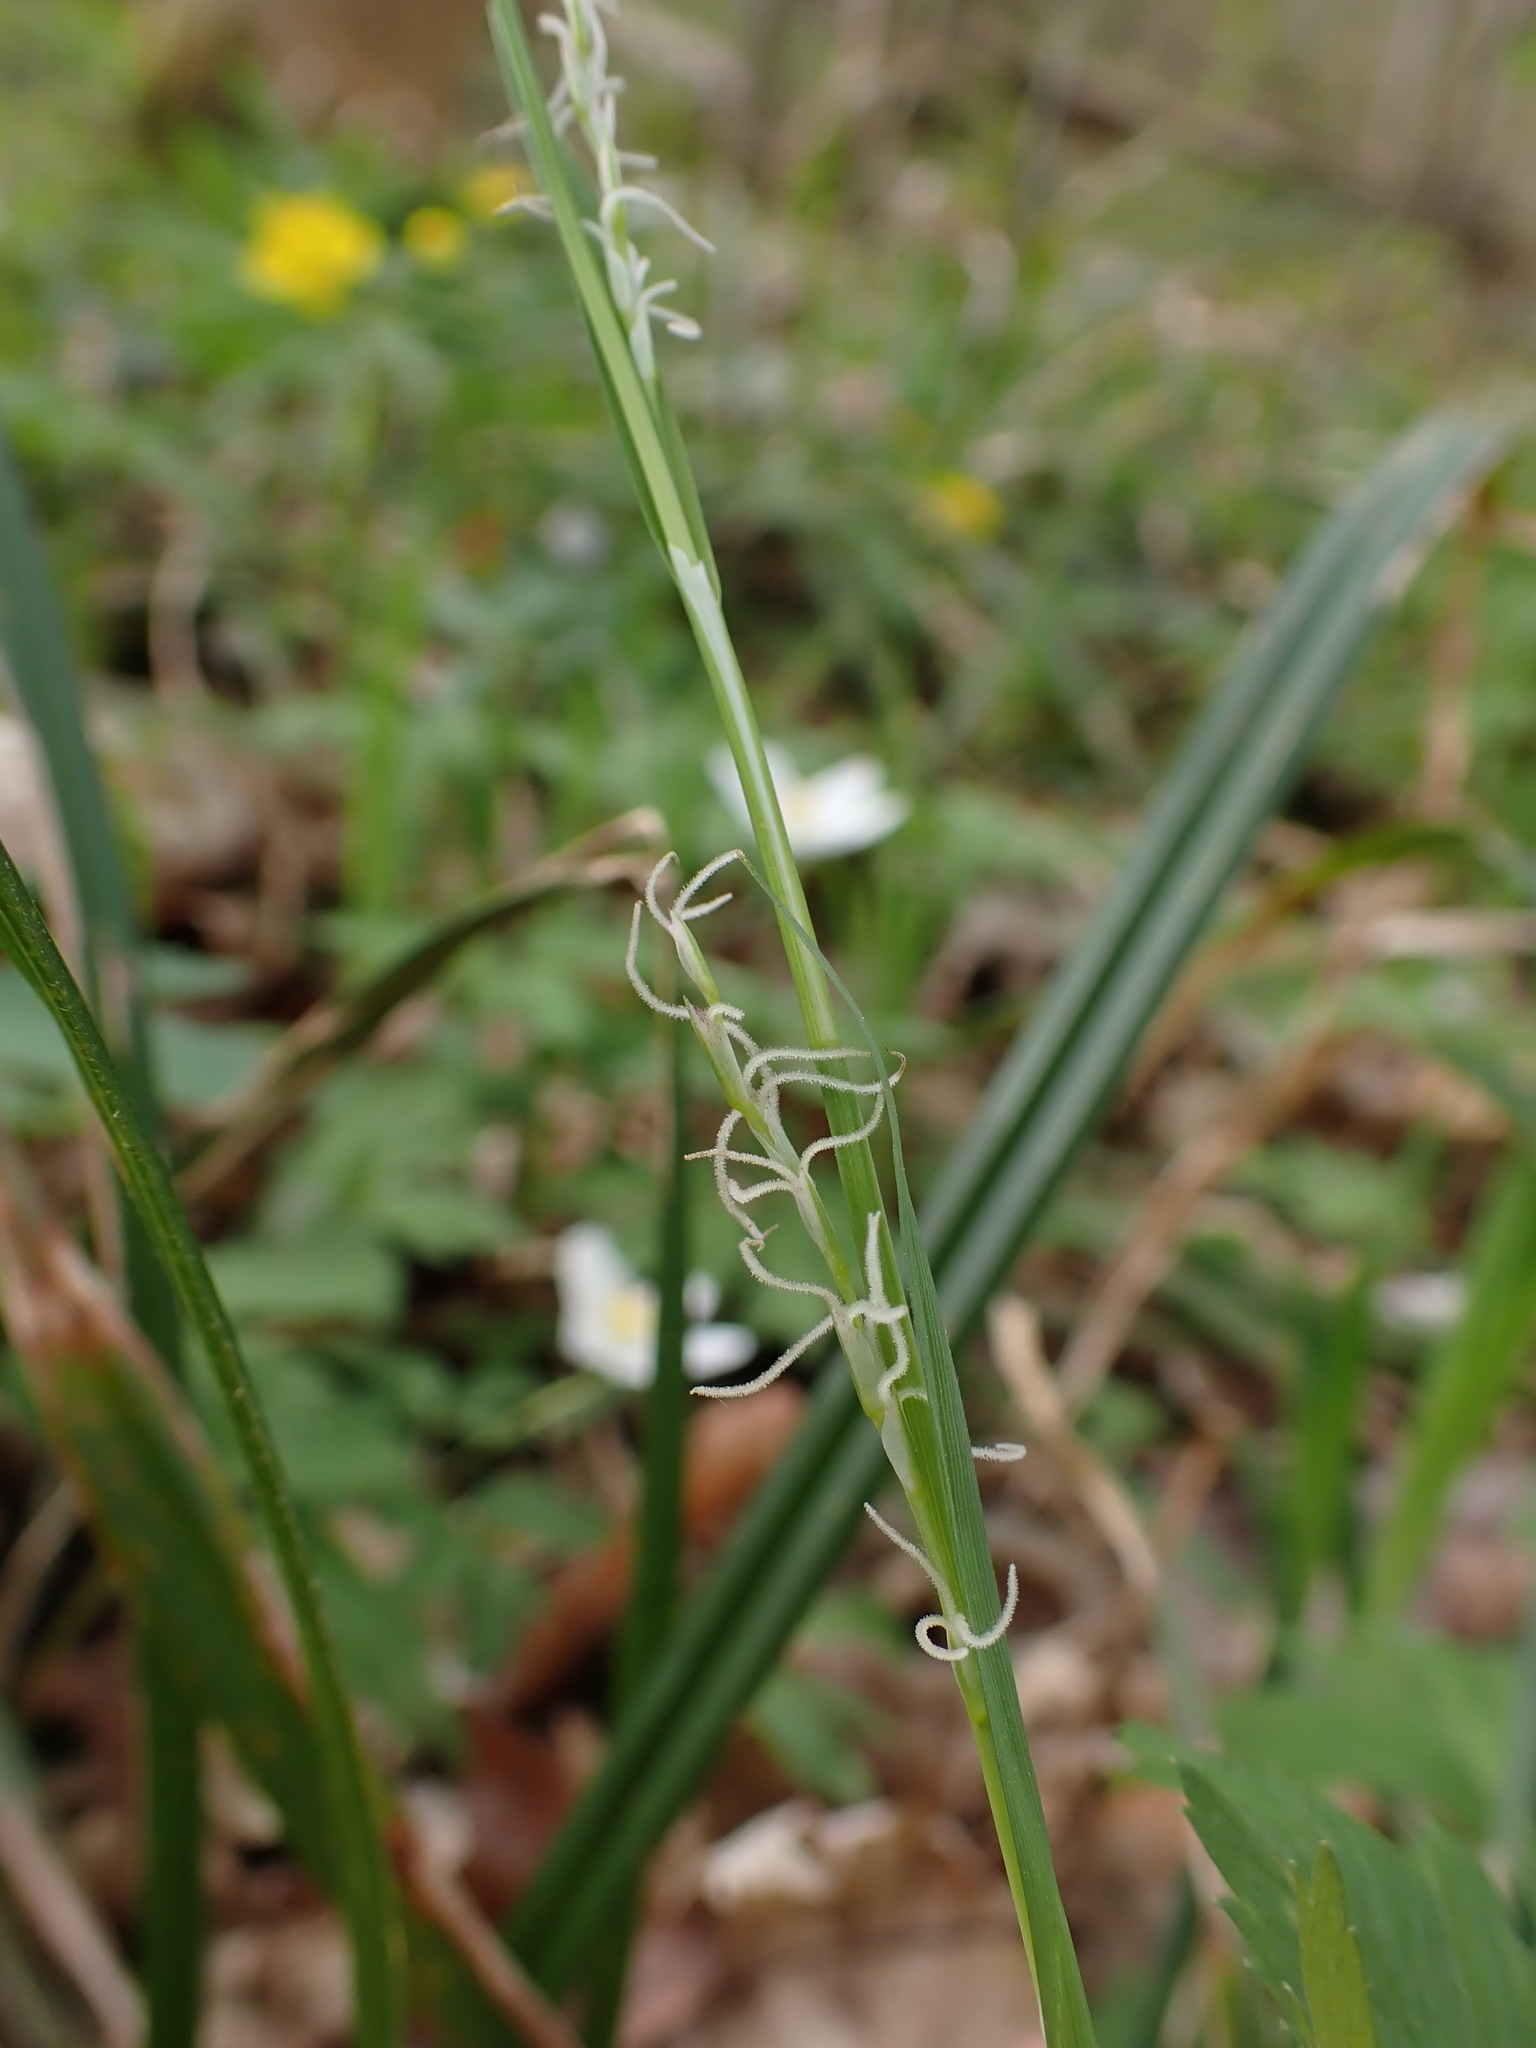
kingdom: Plantae
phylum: Tracheophyta
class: Liliopsida
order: Poales
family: Cyperaceae
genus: Carex
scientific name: Carex pilosa
